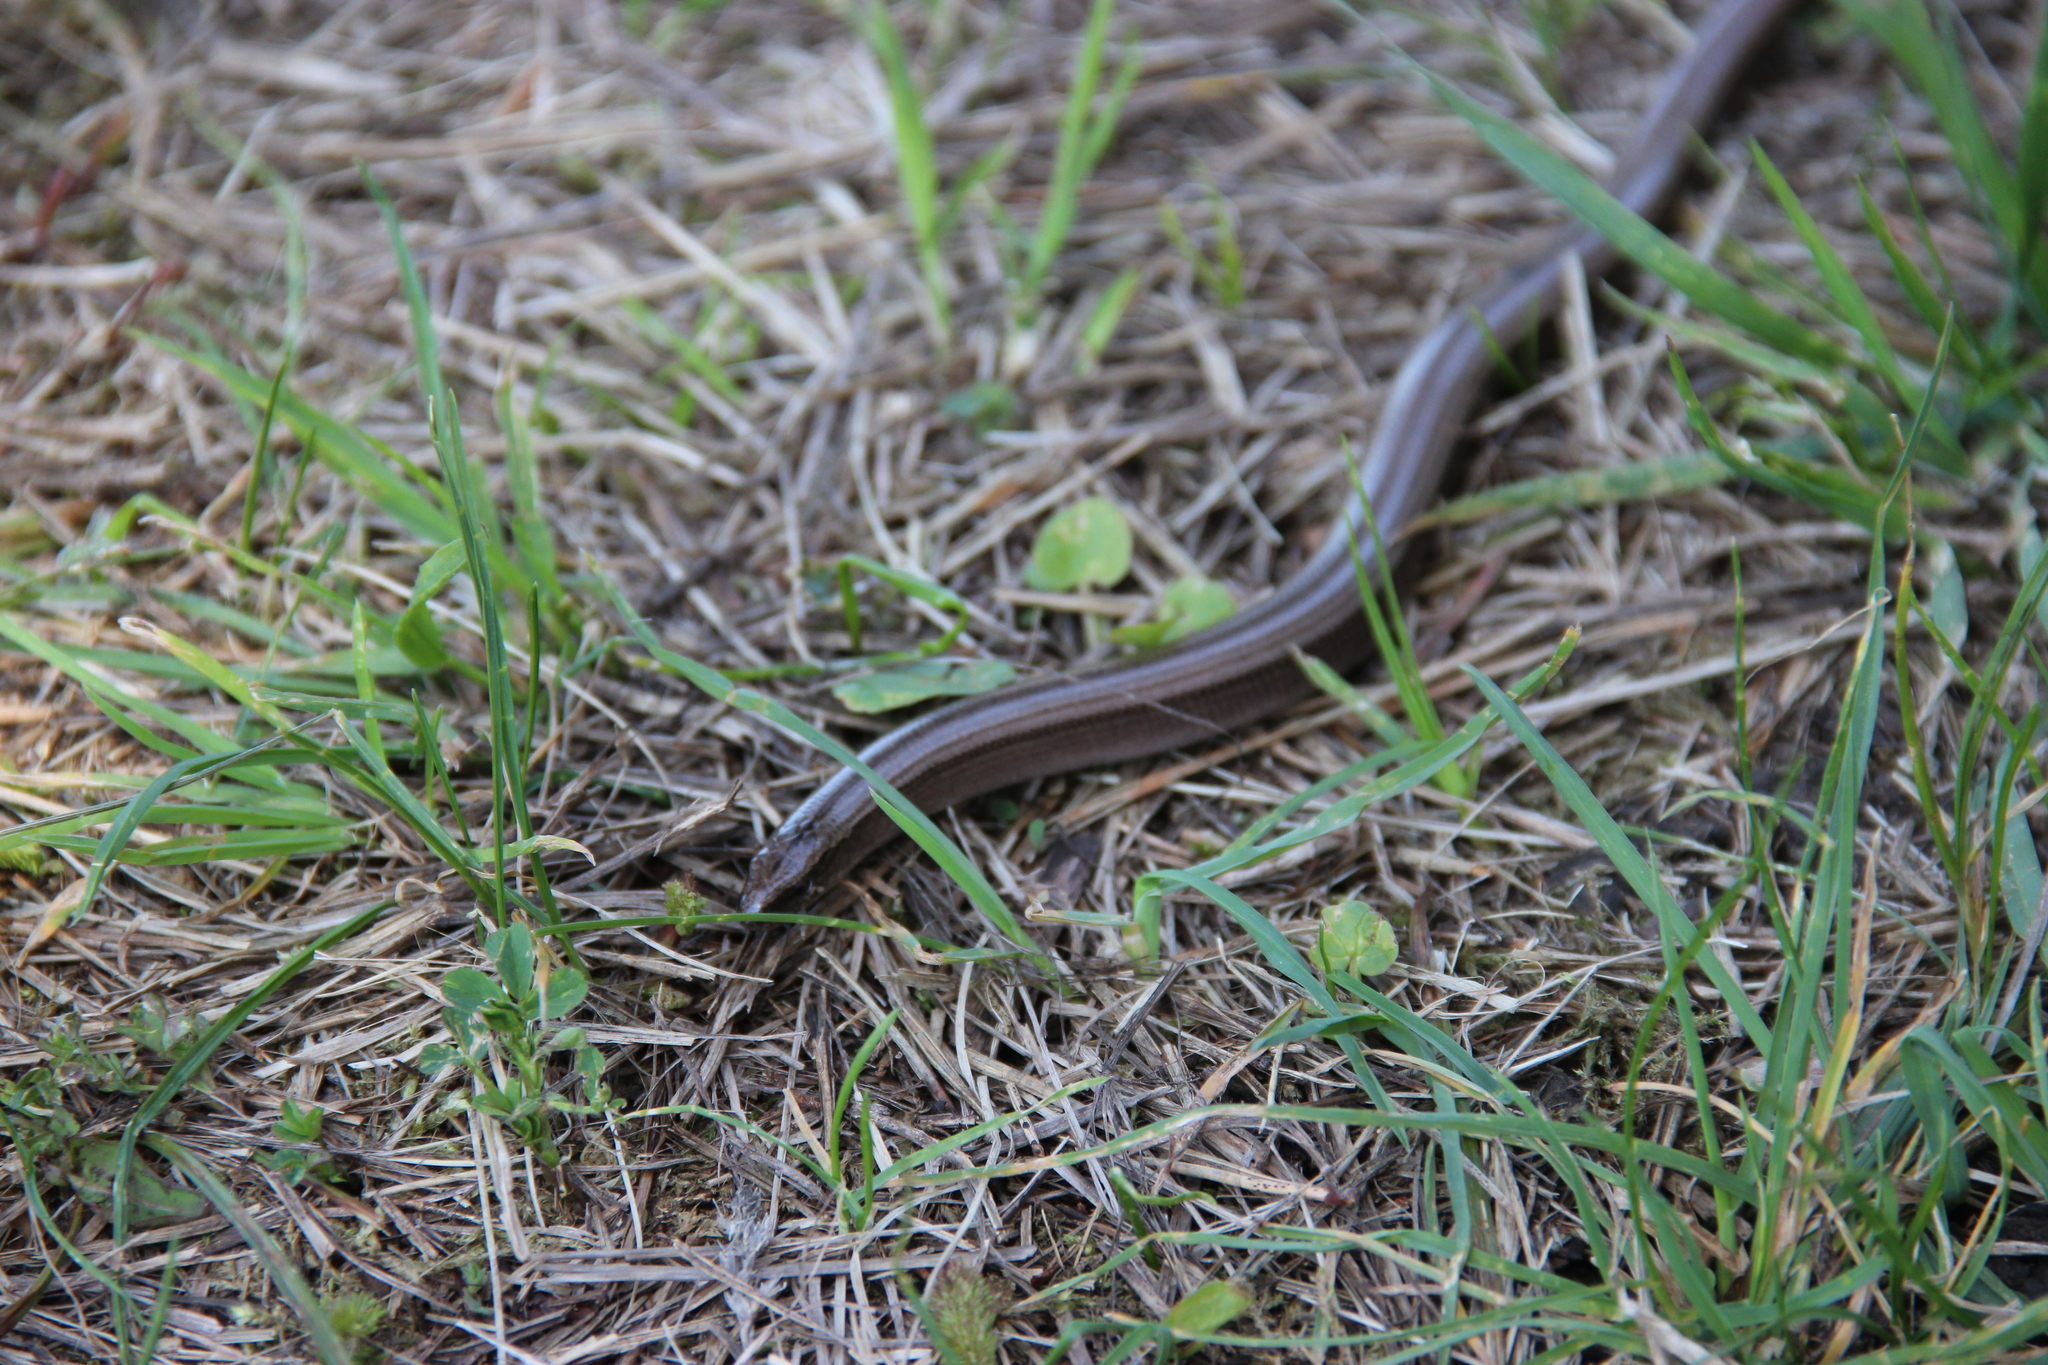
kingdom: Animalia
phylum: Chordata
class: Squamata
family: Anguidae
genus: Anguis
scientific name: Anguis colchica
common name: Slow worm
